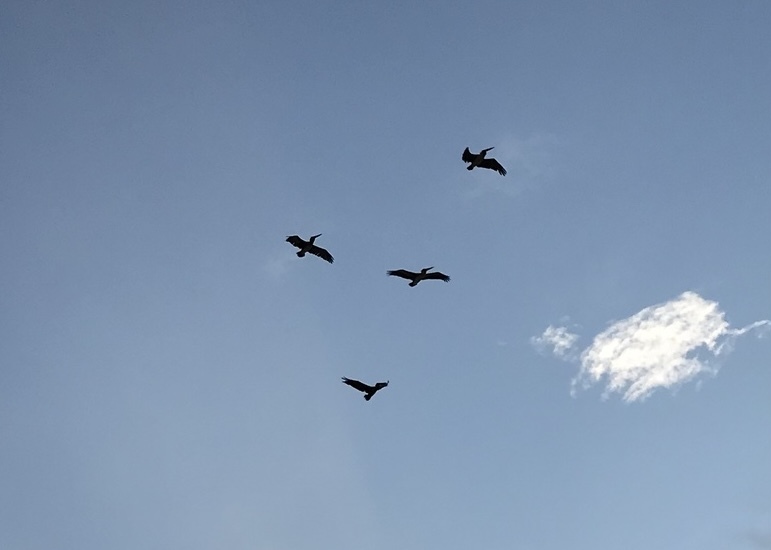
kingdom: Animalia
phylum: Chordata
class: Aves
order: Pelecaniformes
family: Pelecanidae
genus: Pelecanus
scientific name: Pelecanus occidentalis
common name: Brown pelican
